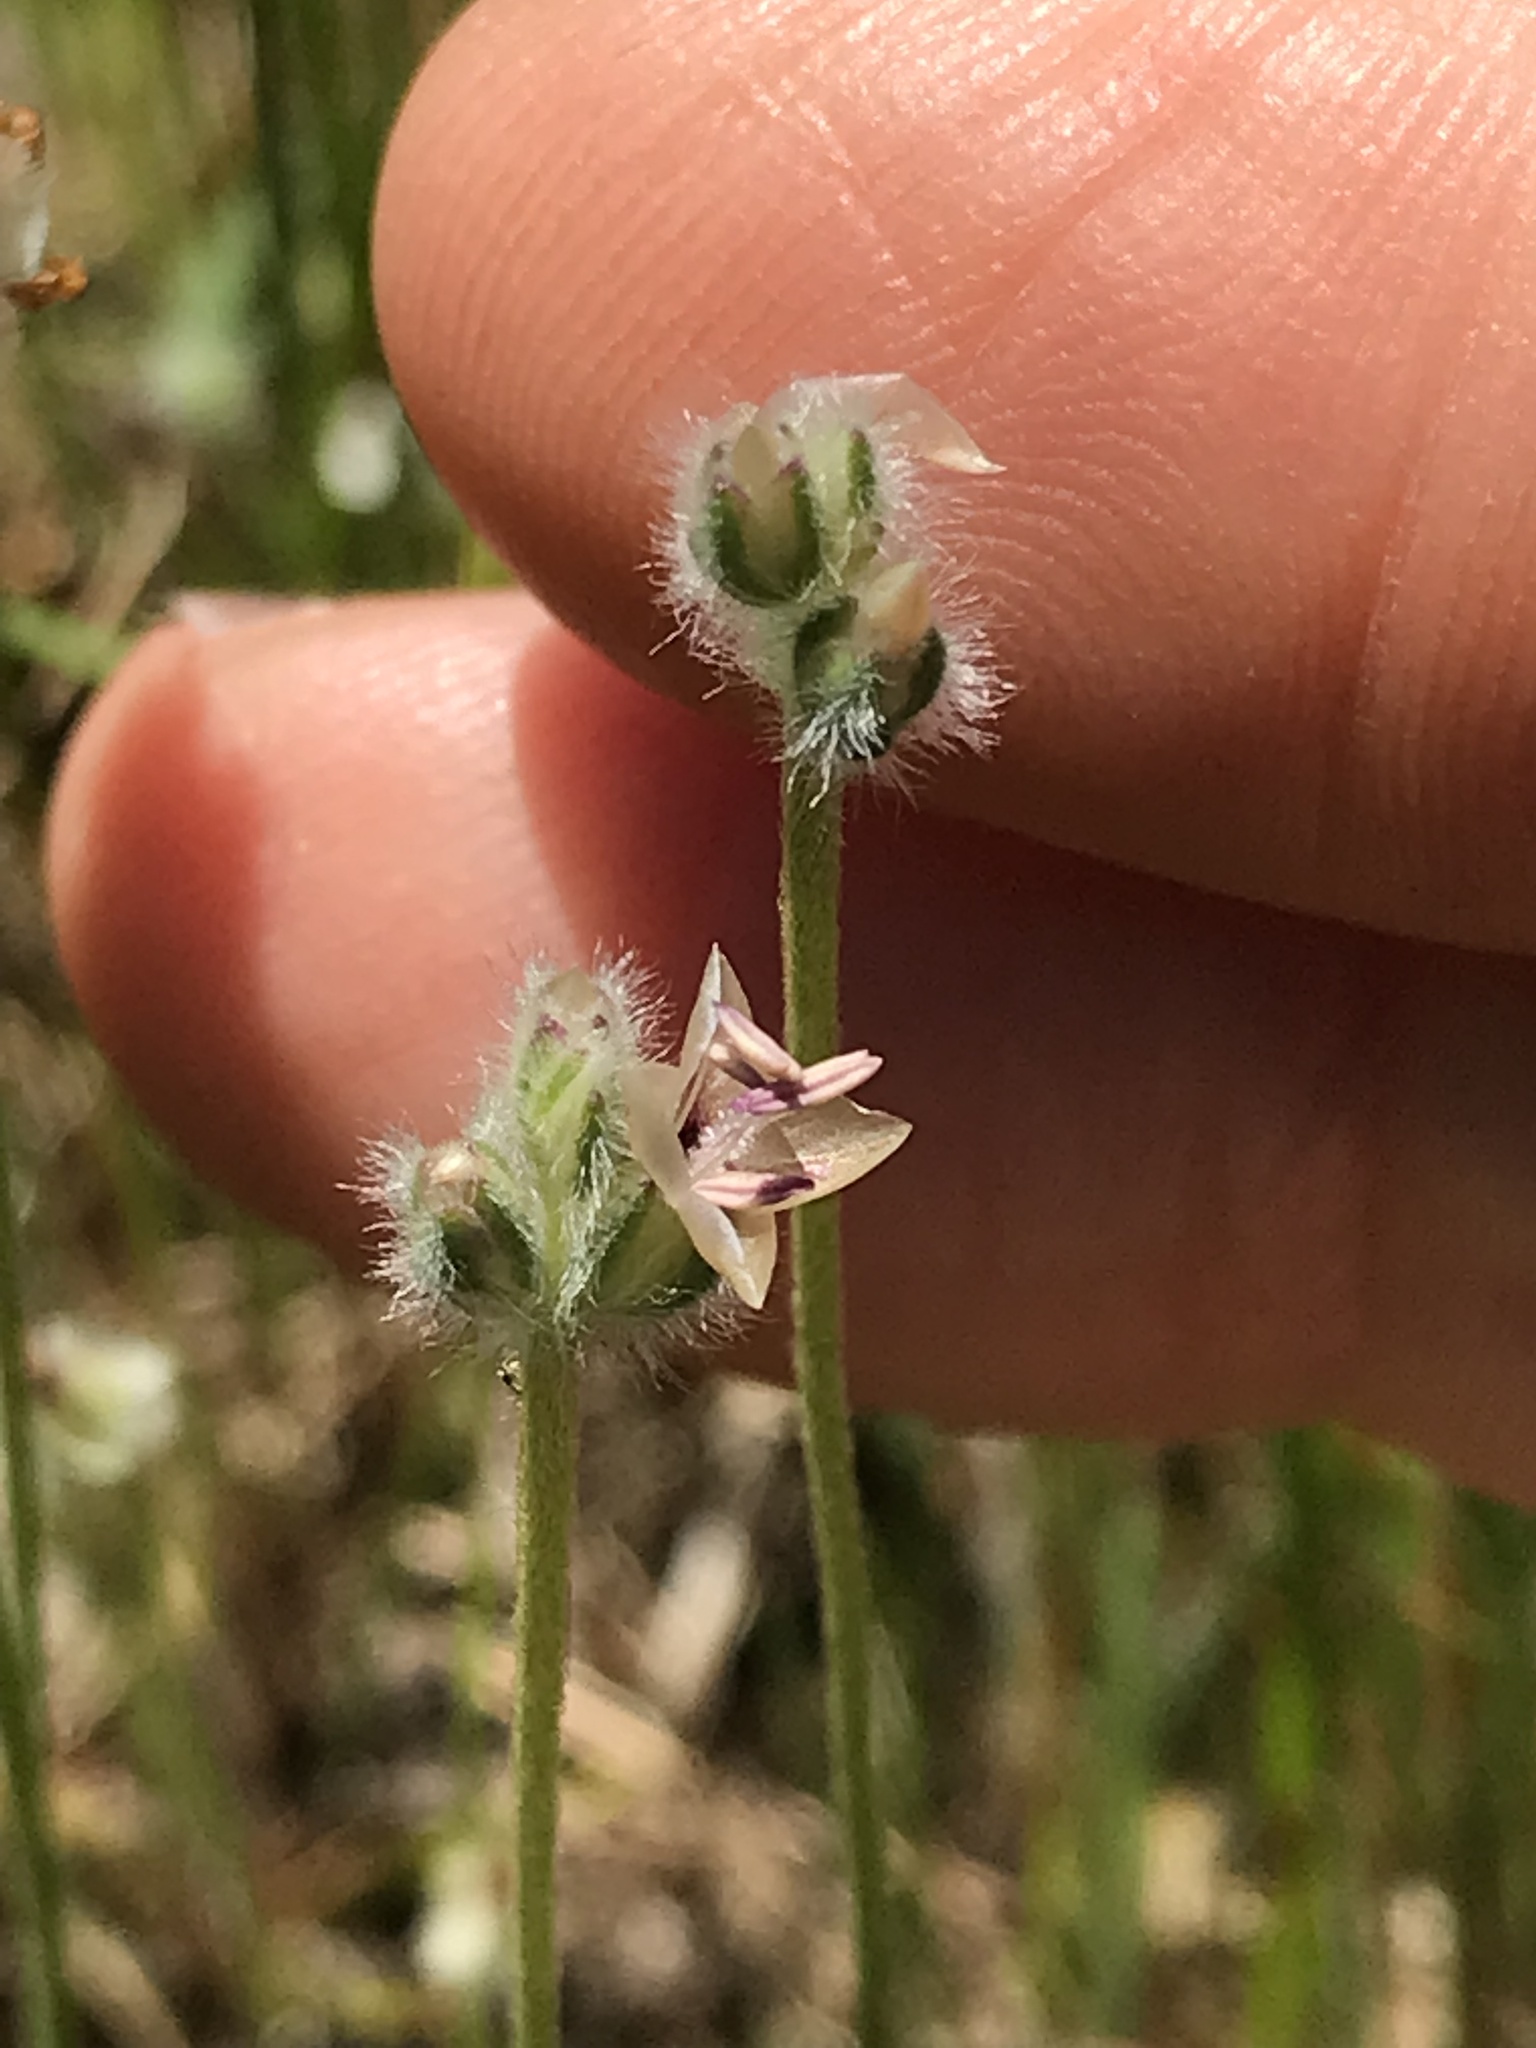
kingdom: Plantae
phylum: Tracheophyta
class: Magnoliopsida
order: Lamiales
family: Plantaginaceae
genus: Plantago
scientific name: Plantago erecta
